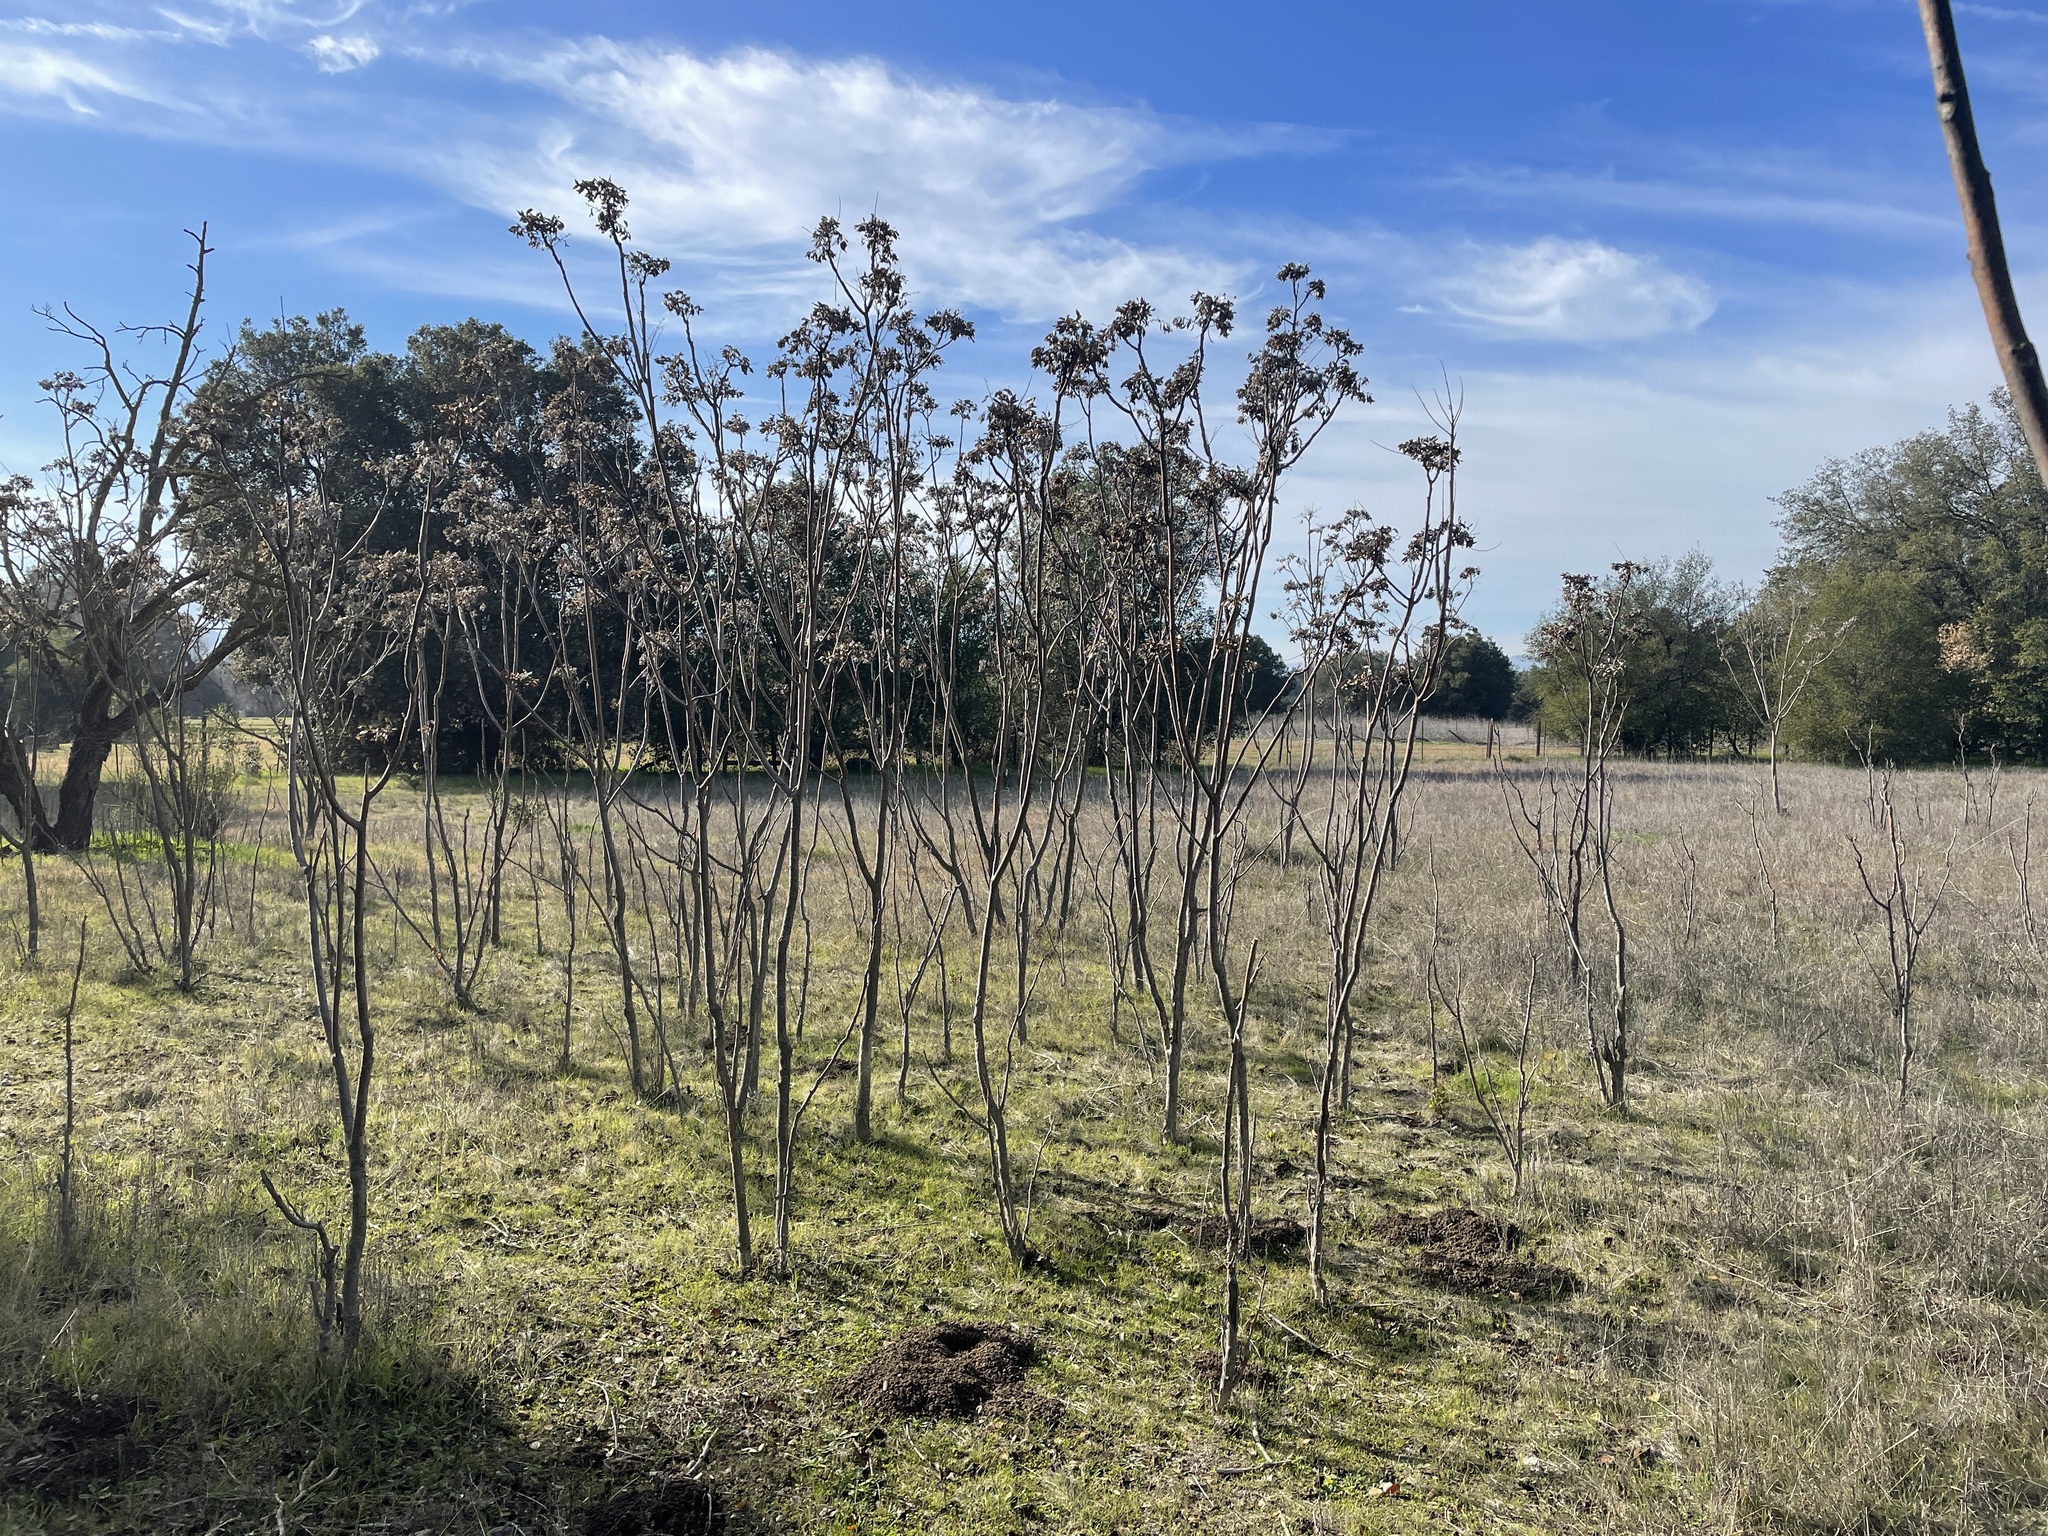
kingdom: Plantae
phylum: Tracheophyta
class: Magnoliopsida
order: Sapindales
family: Simaroubaceae
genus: Ailanthus
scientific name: Ailanthus altissima
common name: Tree-of-heaven
